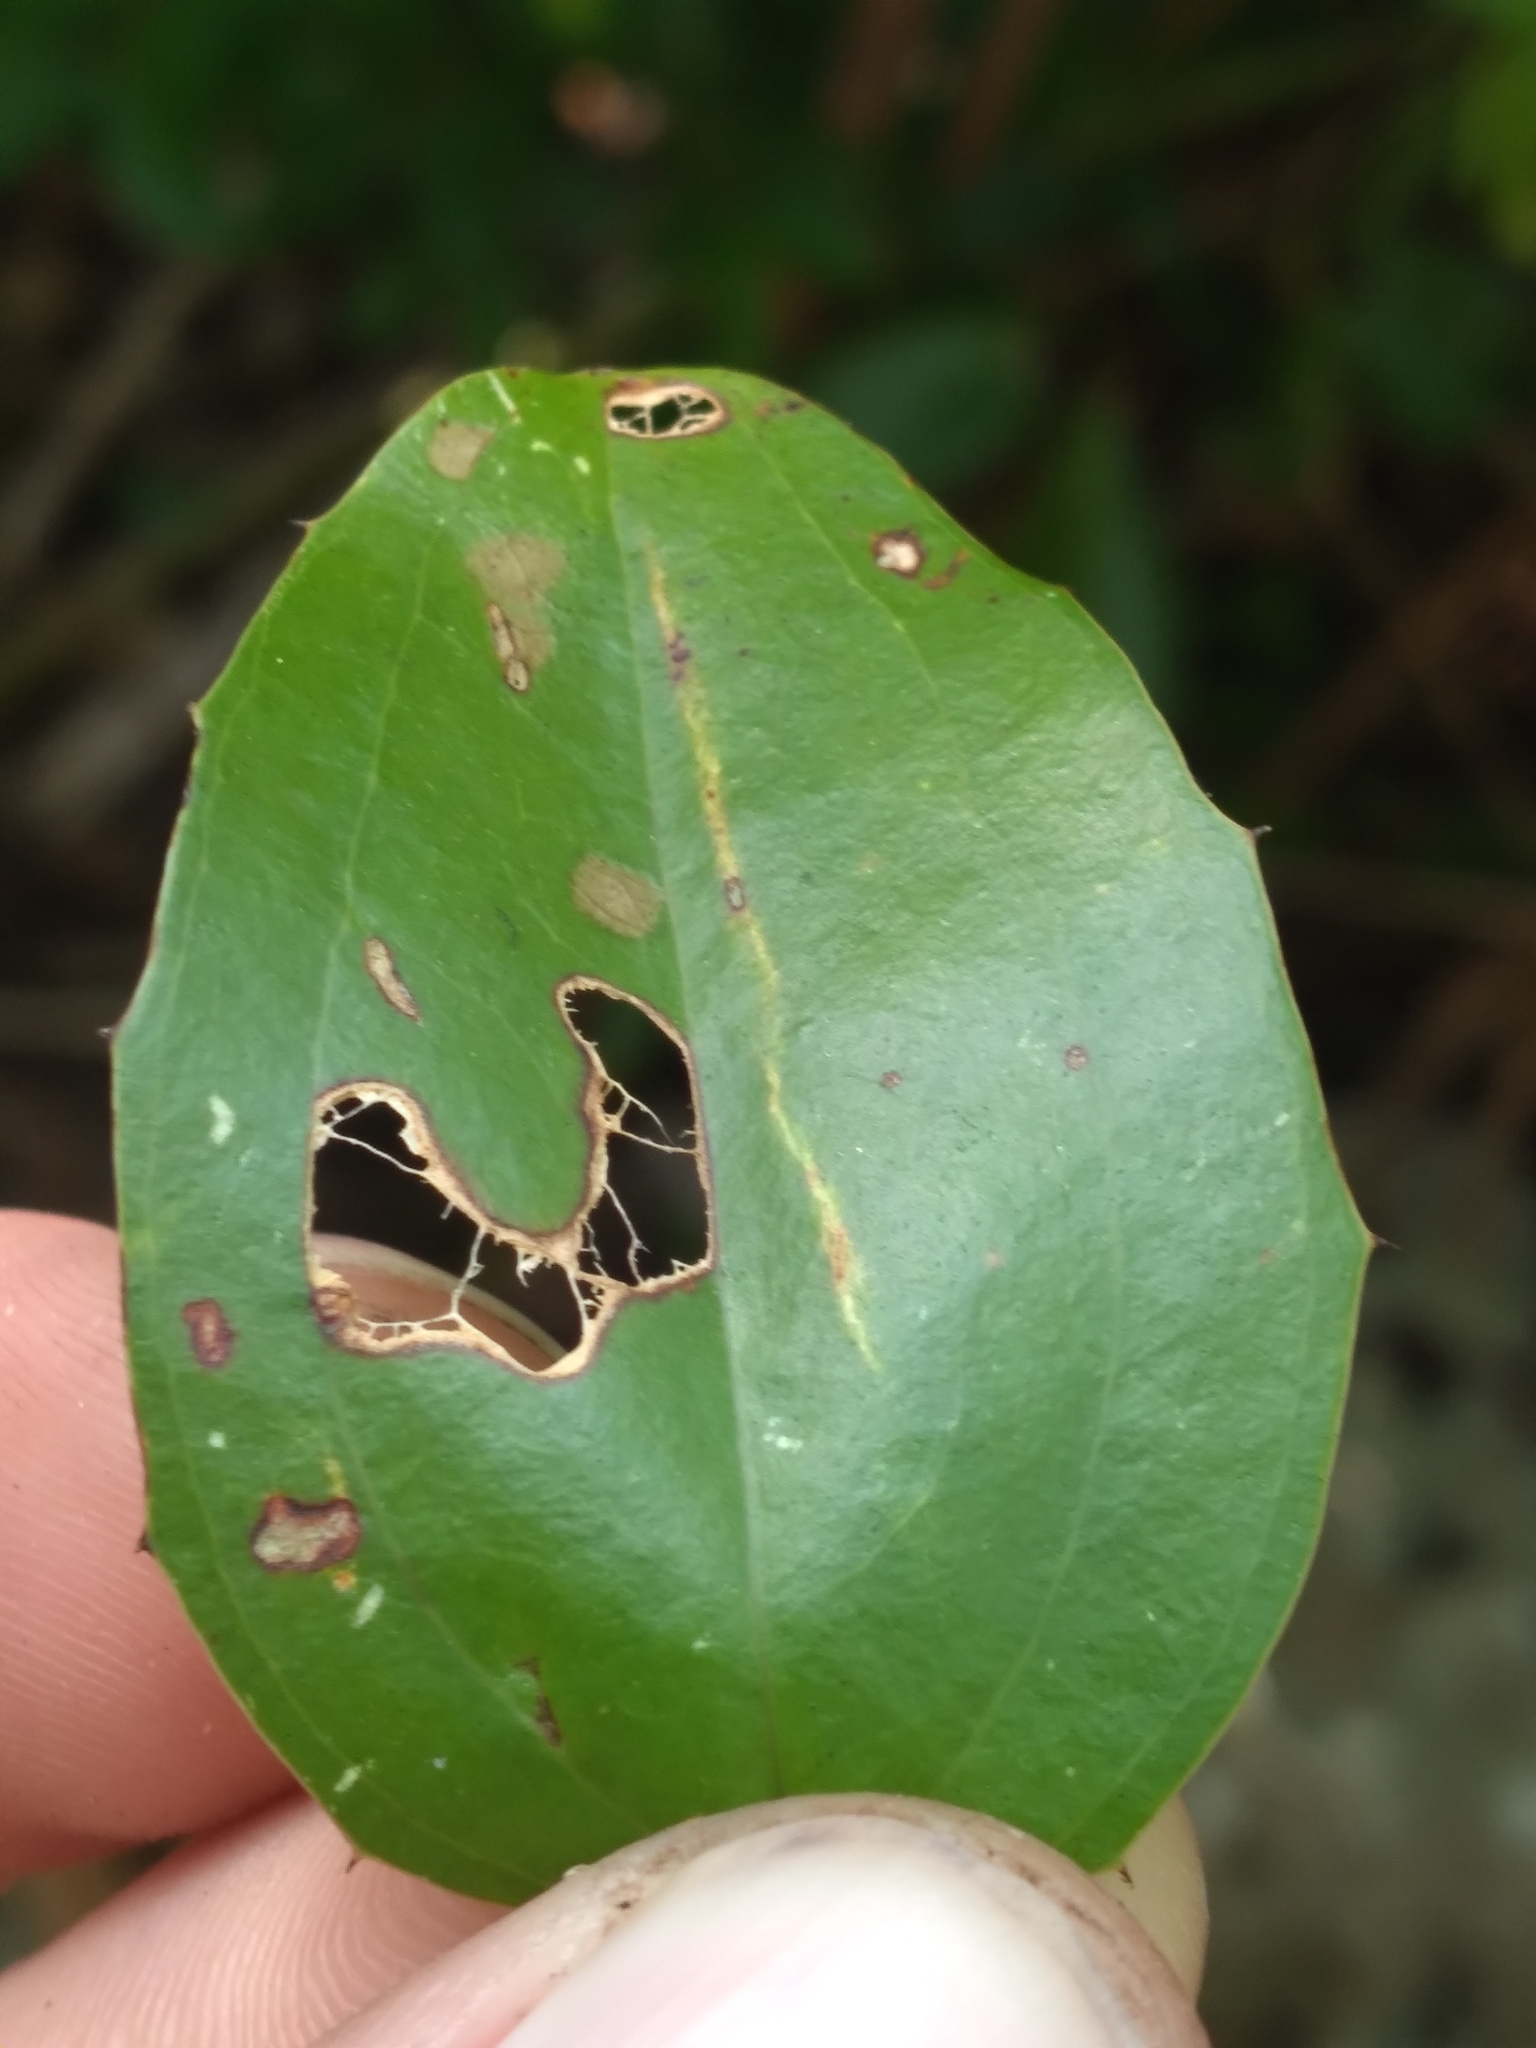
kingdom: Plantae
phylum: Tracheophyta
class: Liliopsida
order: Liliales
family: Smilacaceae
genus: Smilax
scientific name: Smilax havanensis
